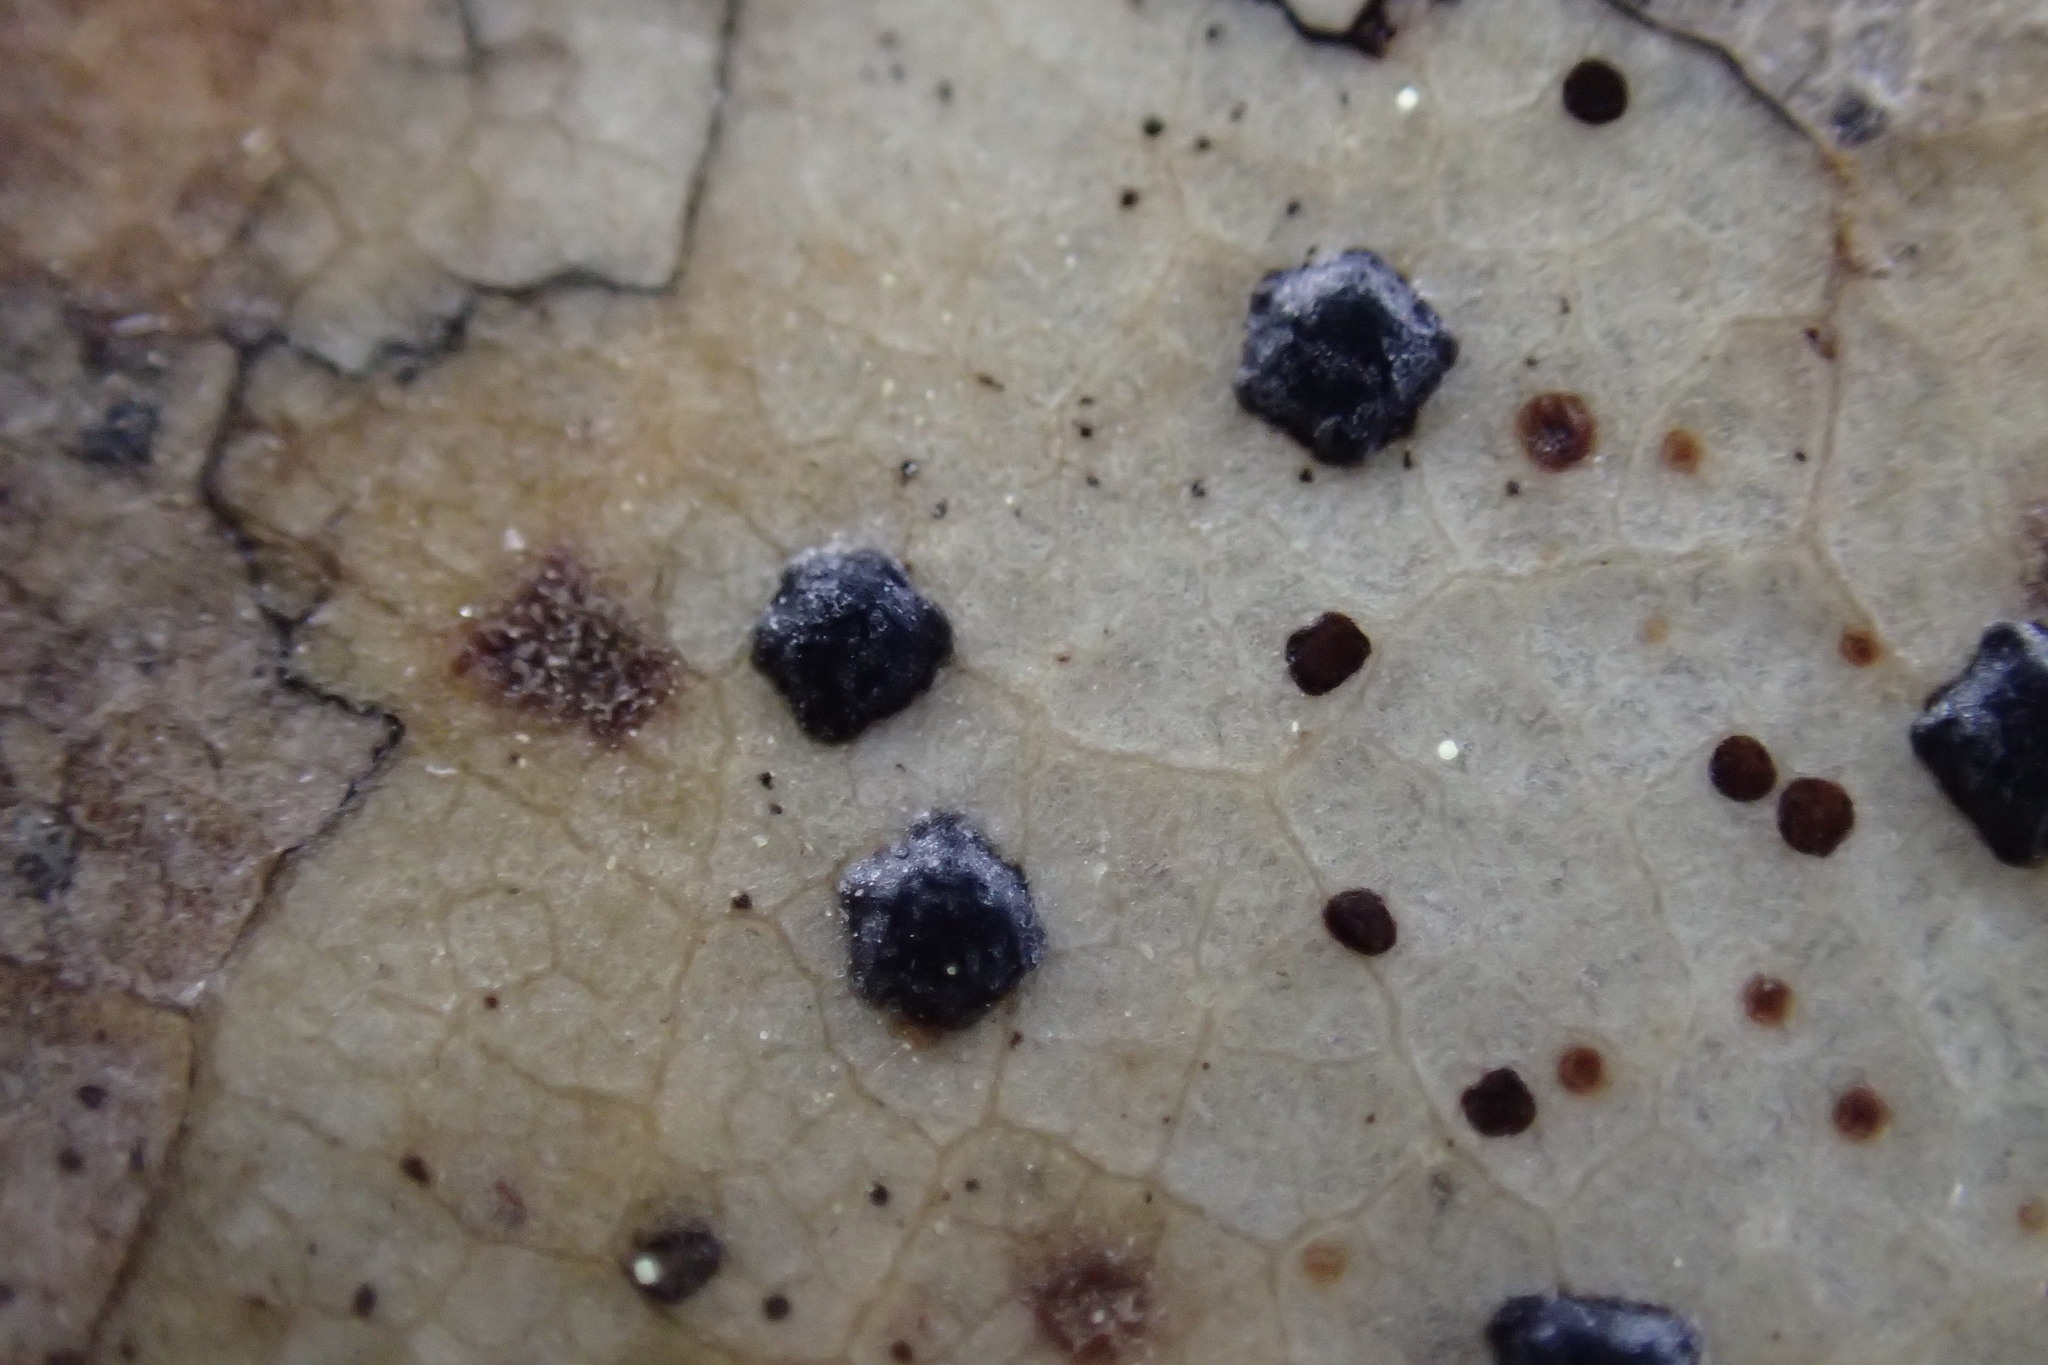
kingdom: Fungi
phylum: Ascomycota
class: Leotiomycetes
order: Rhytismatales
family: Rhytismataceae
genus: Coccomyces
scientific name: Coccomyces dentatus
